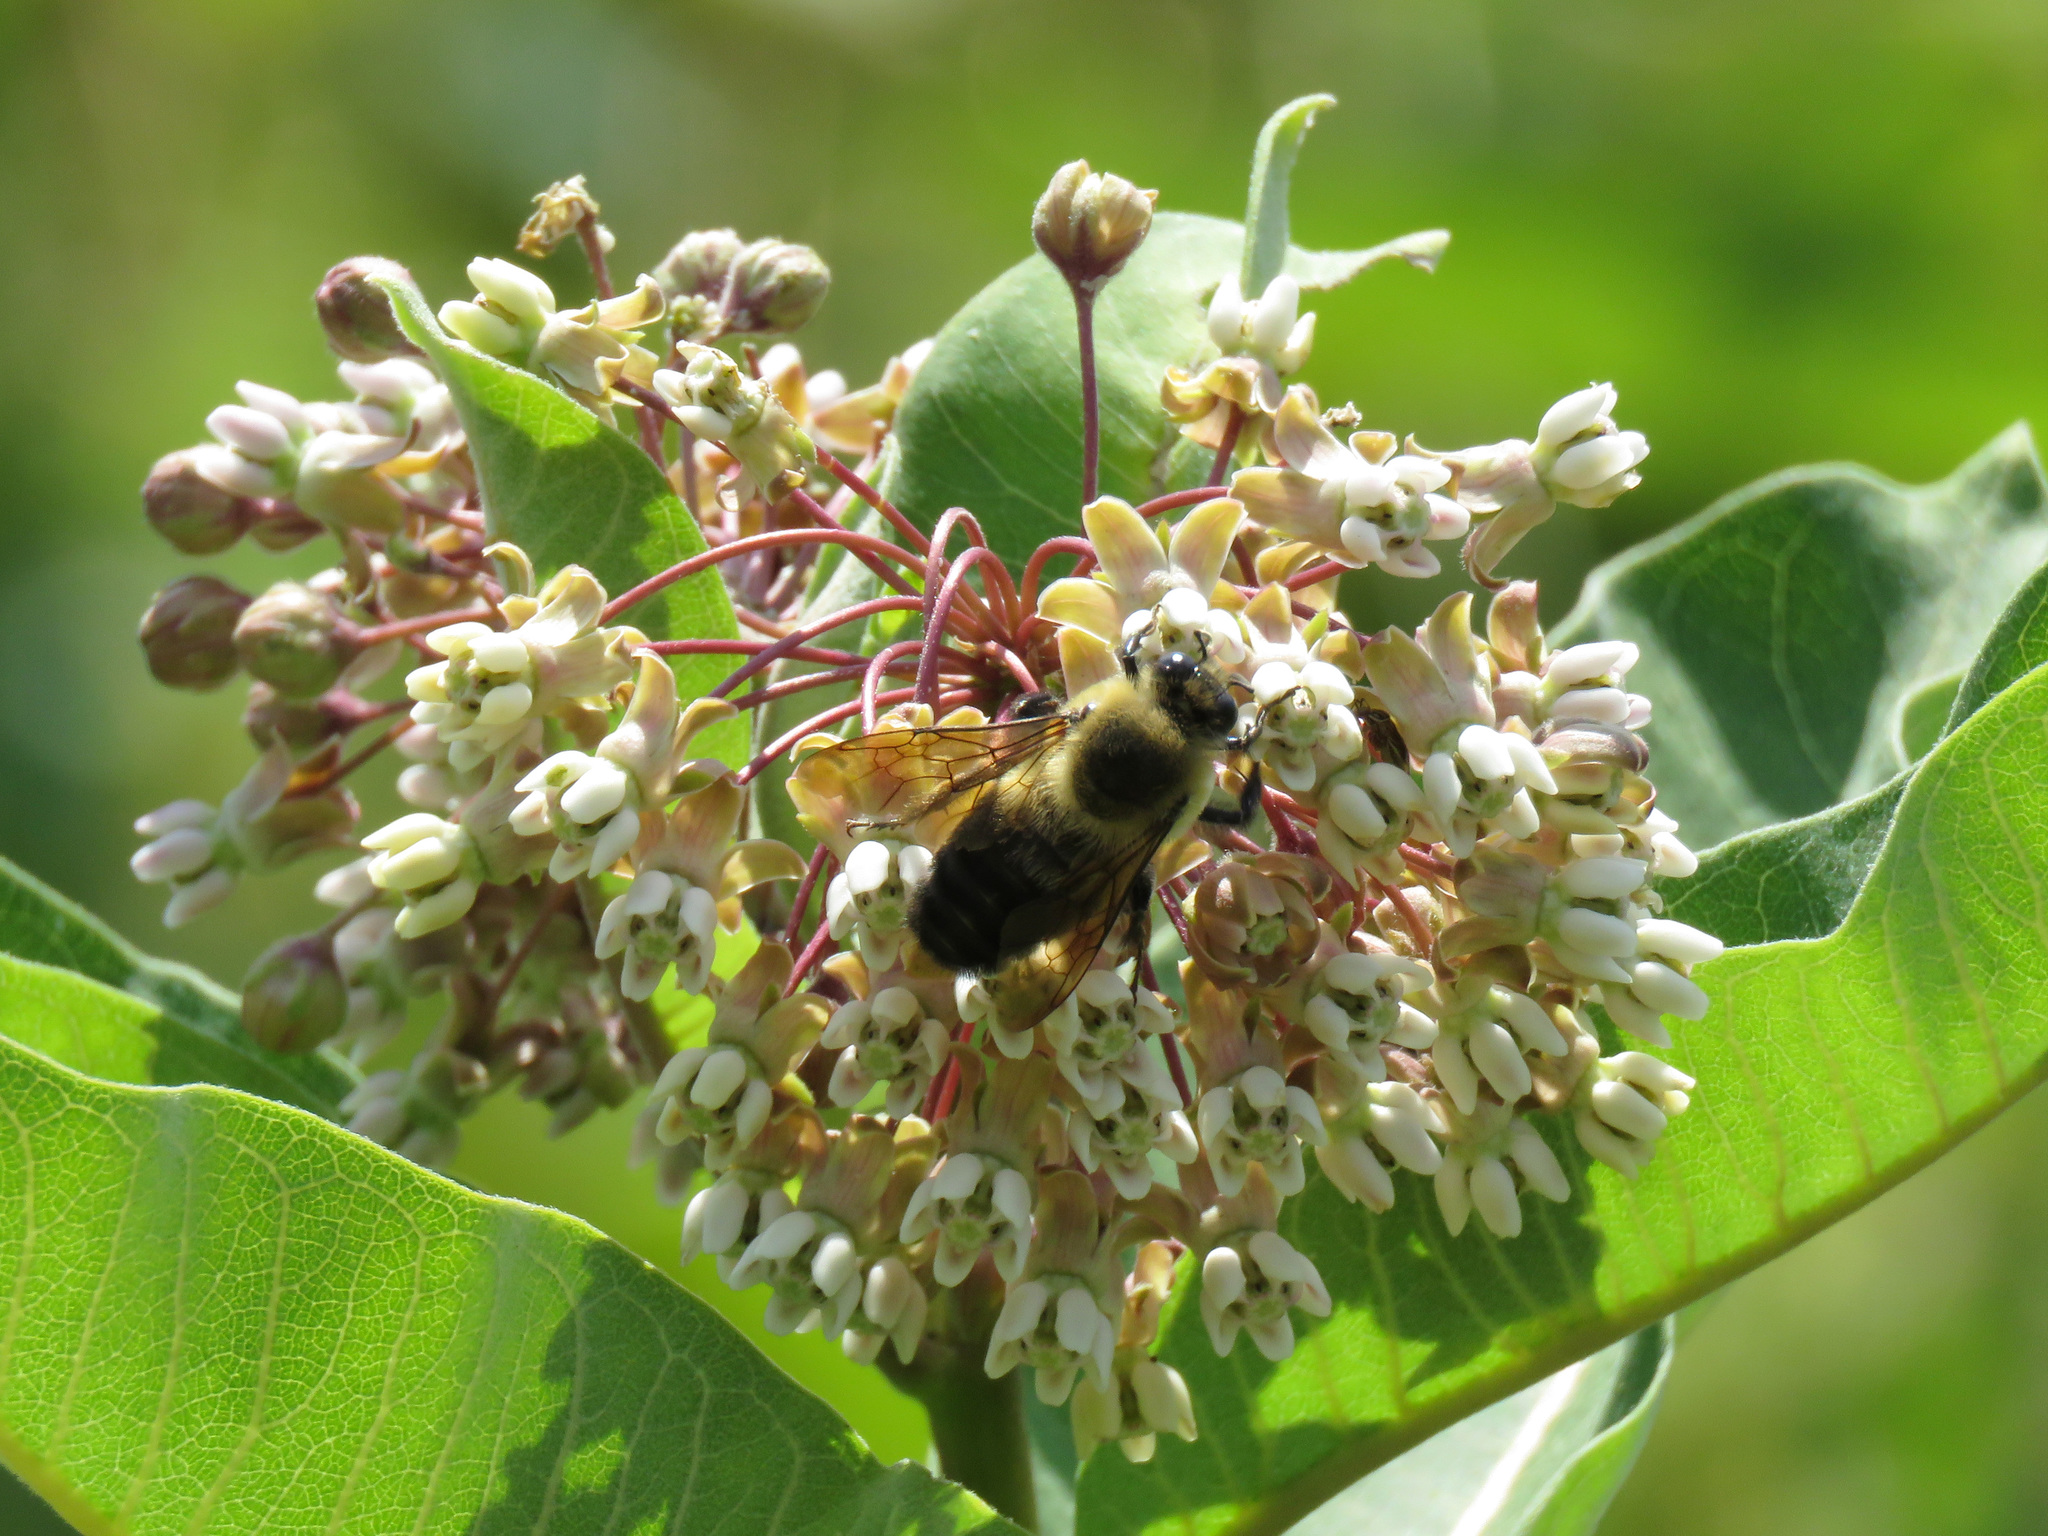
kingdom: Animalia
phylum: Arthropoda
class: Insecta
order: Hymenoptera
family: Apidae
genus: Bombus
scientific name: Bombus griseocollis
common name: Brown-belted bumble bee
